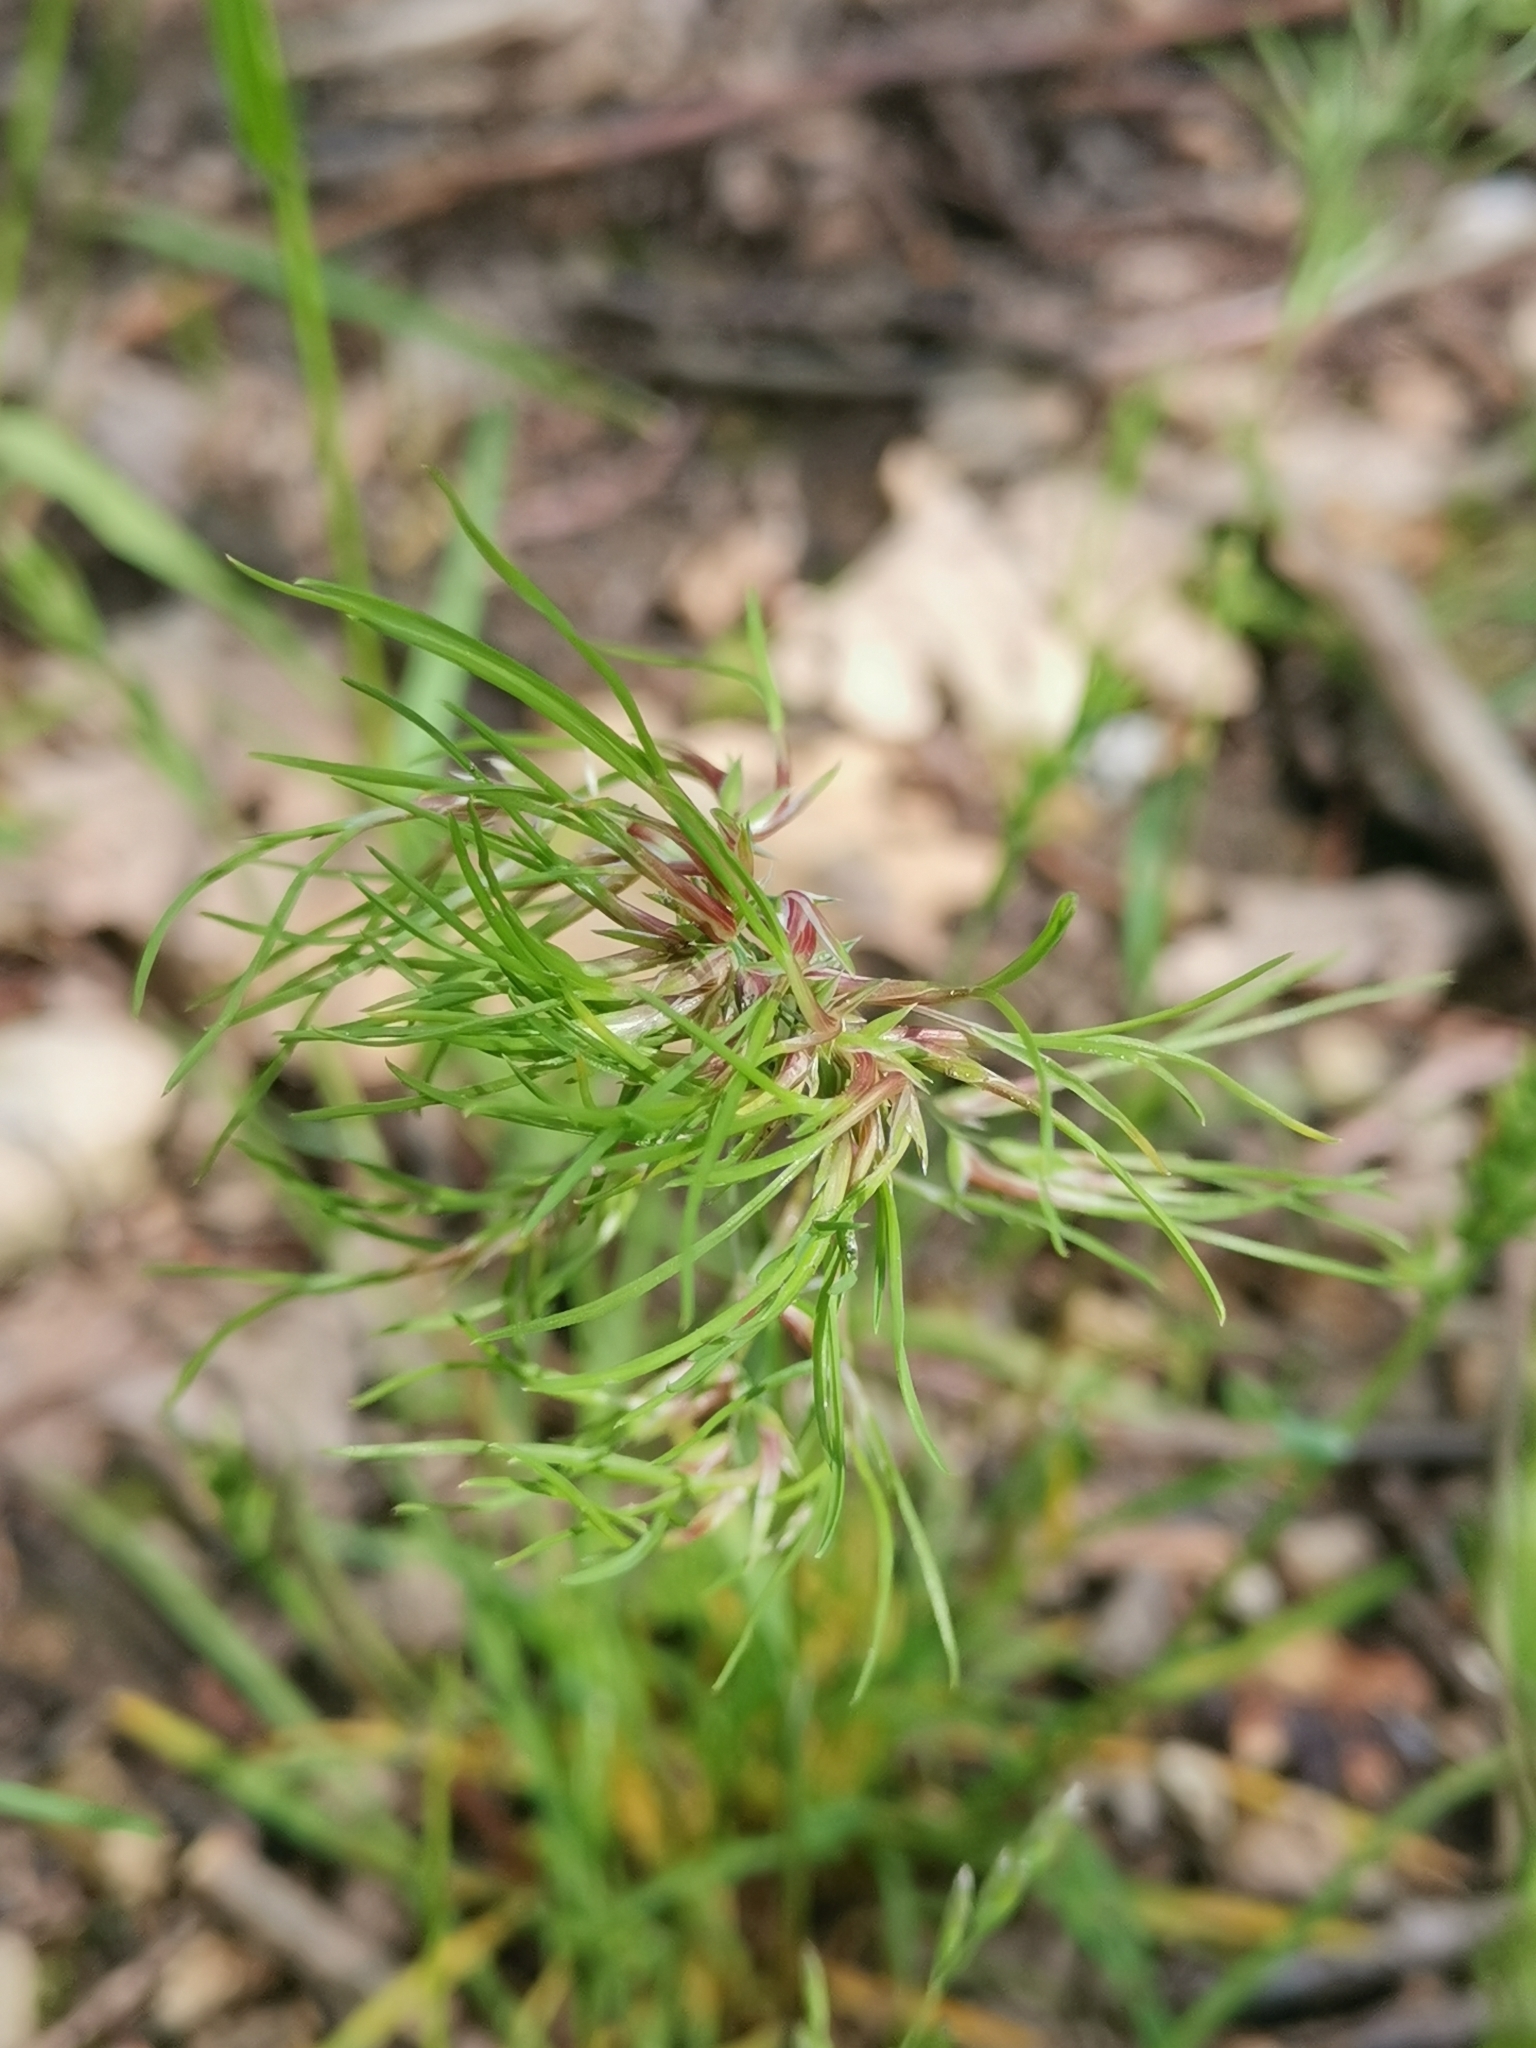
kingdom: Plantae
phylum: Tracheophyta
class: Liliopsida
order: Poales
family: Poaceae
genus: Poa
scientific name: Poa bulbosa
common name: Bulbous bluegrass
